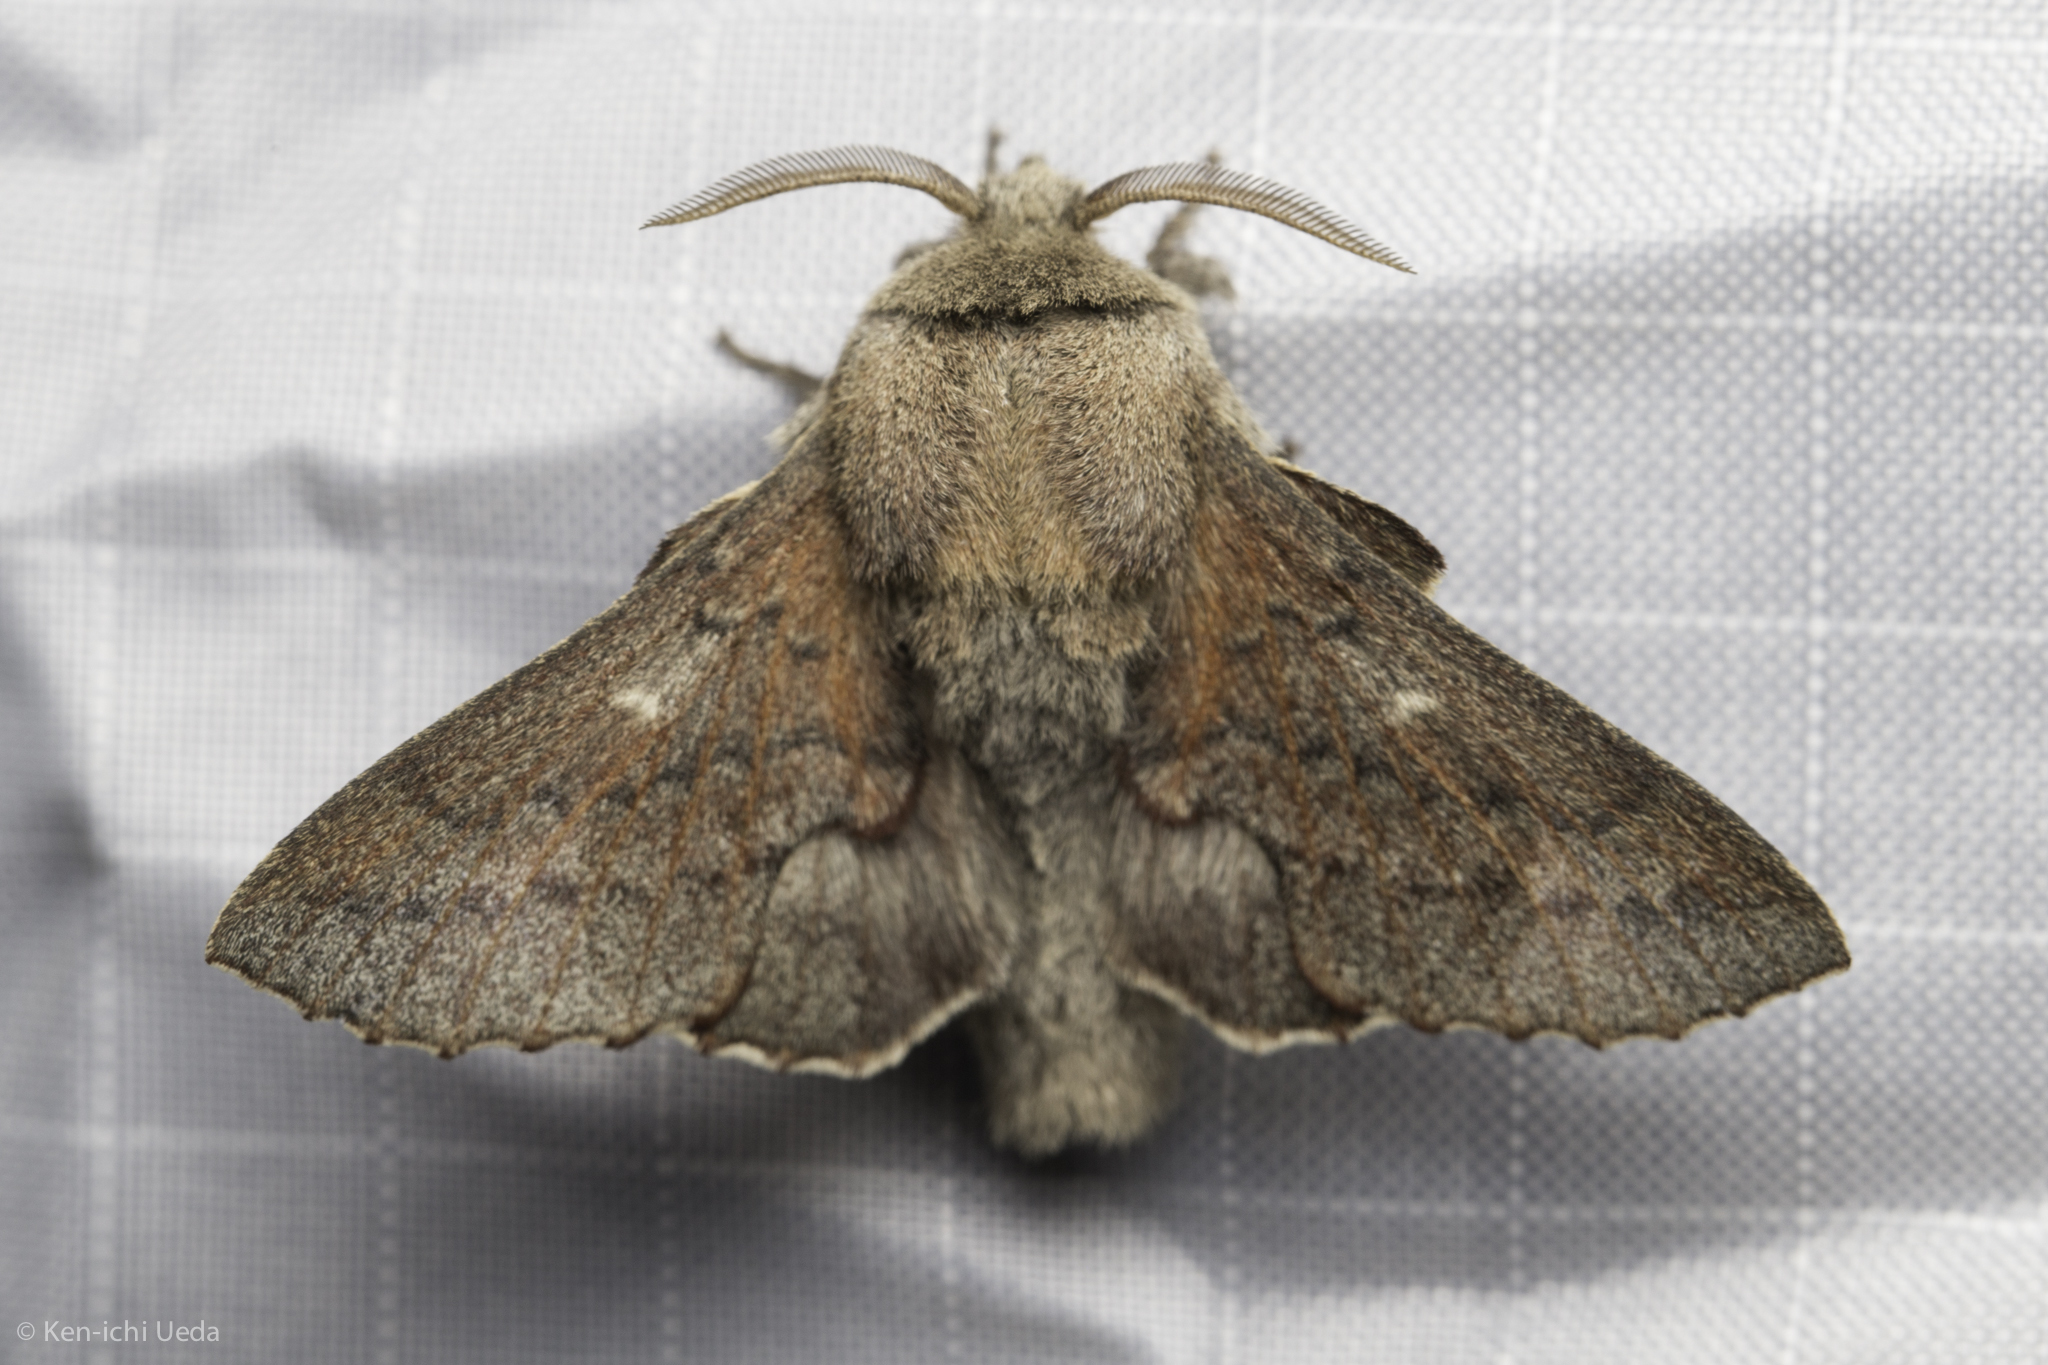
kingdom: Animalia
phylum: Arthropoda
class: Insecta
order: Lepidoptera
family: Lasiocampidae
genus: Phyllodesma
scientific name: Phyllodesma americana
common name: American lappet moth
